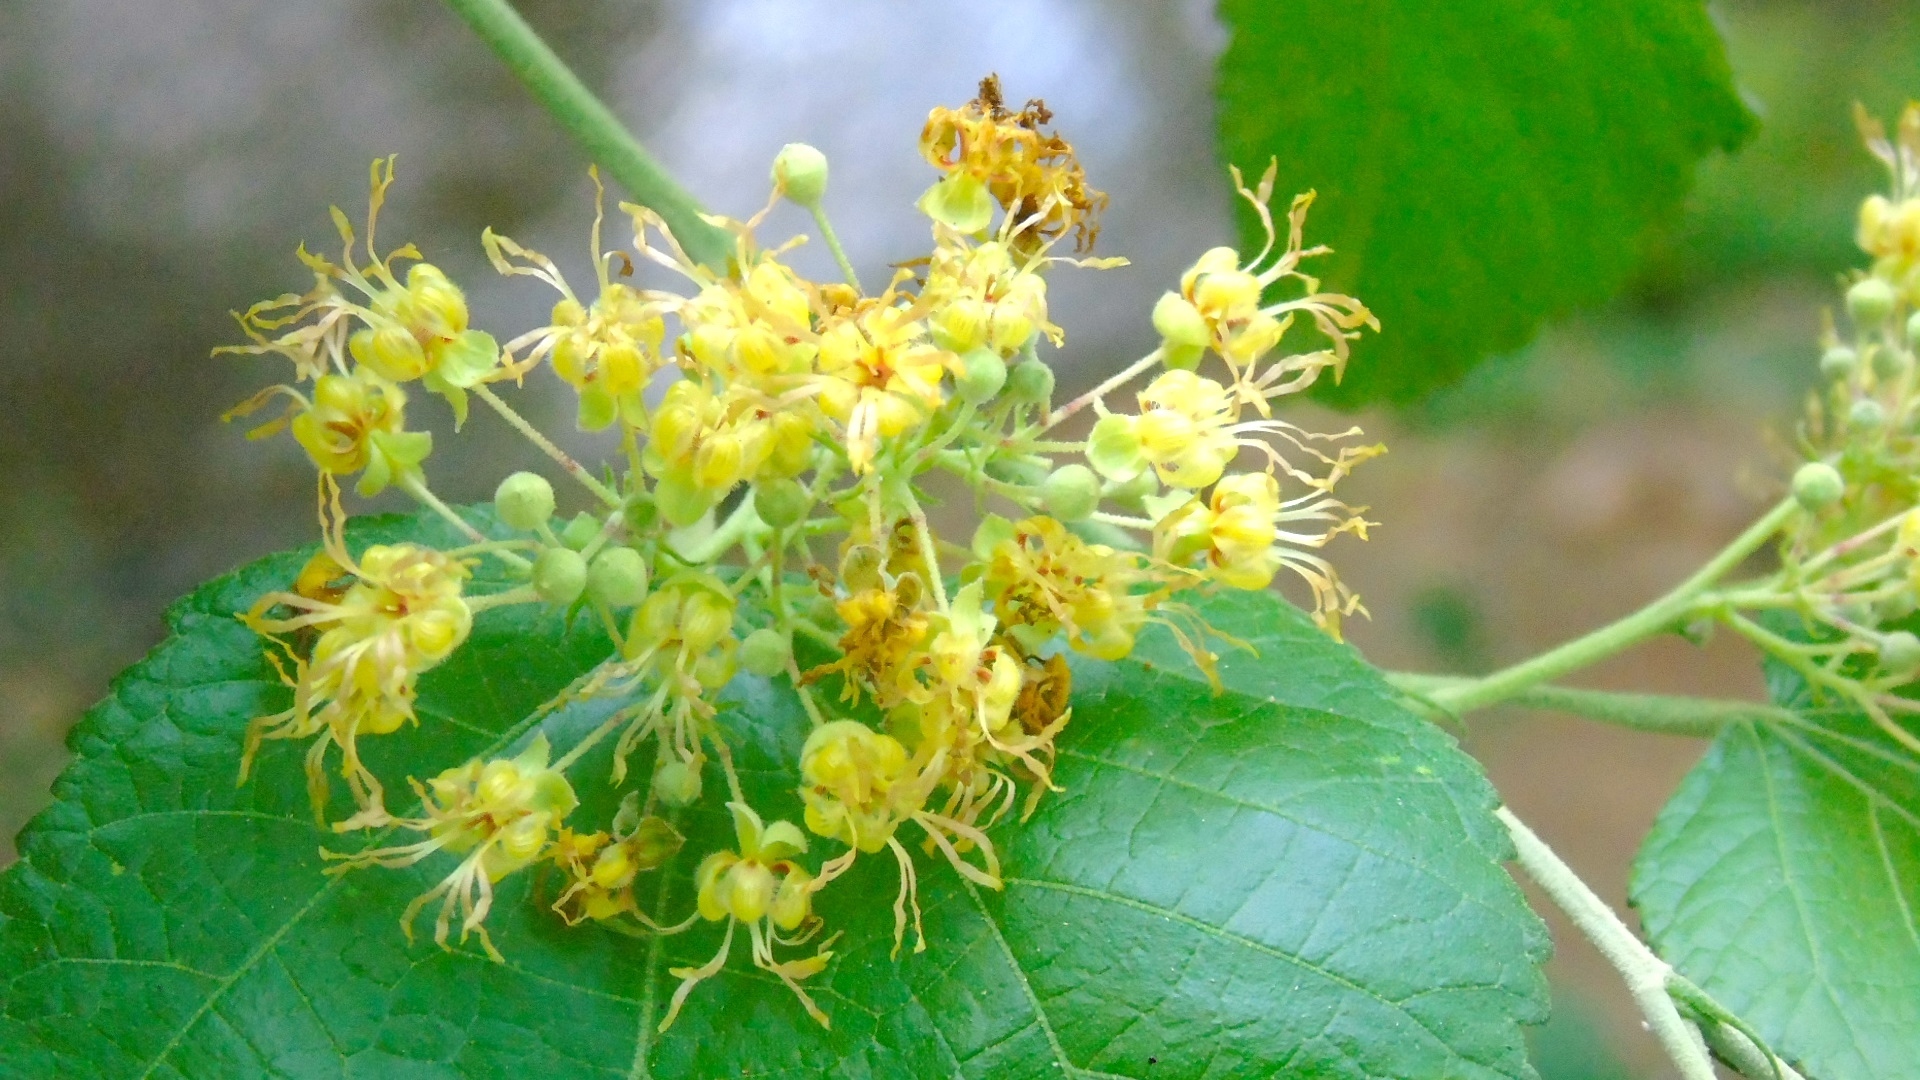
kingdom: Plantae
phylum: Tracheophyta
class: Magnoliopsida
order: Malvales
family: Malvaceae
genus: Guazuma
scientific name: Guazuma ulmifolia
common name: Bastard-cedar
